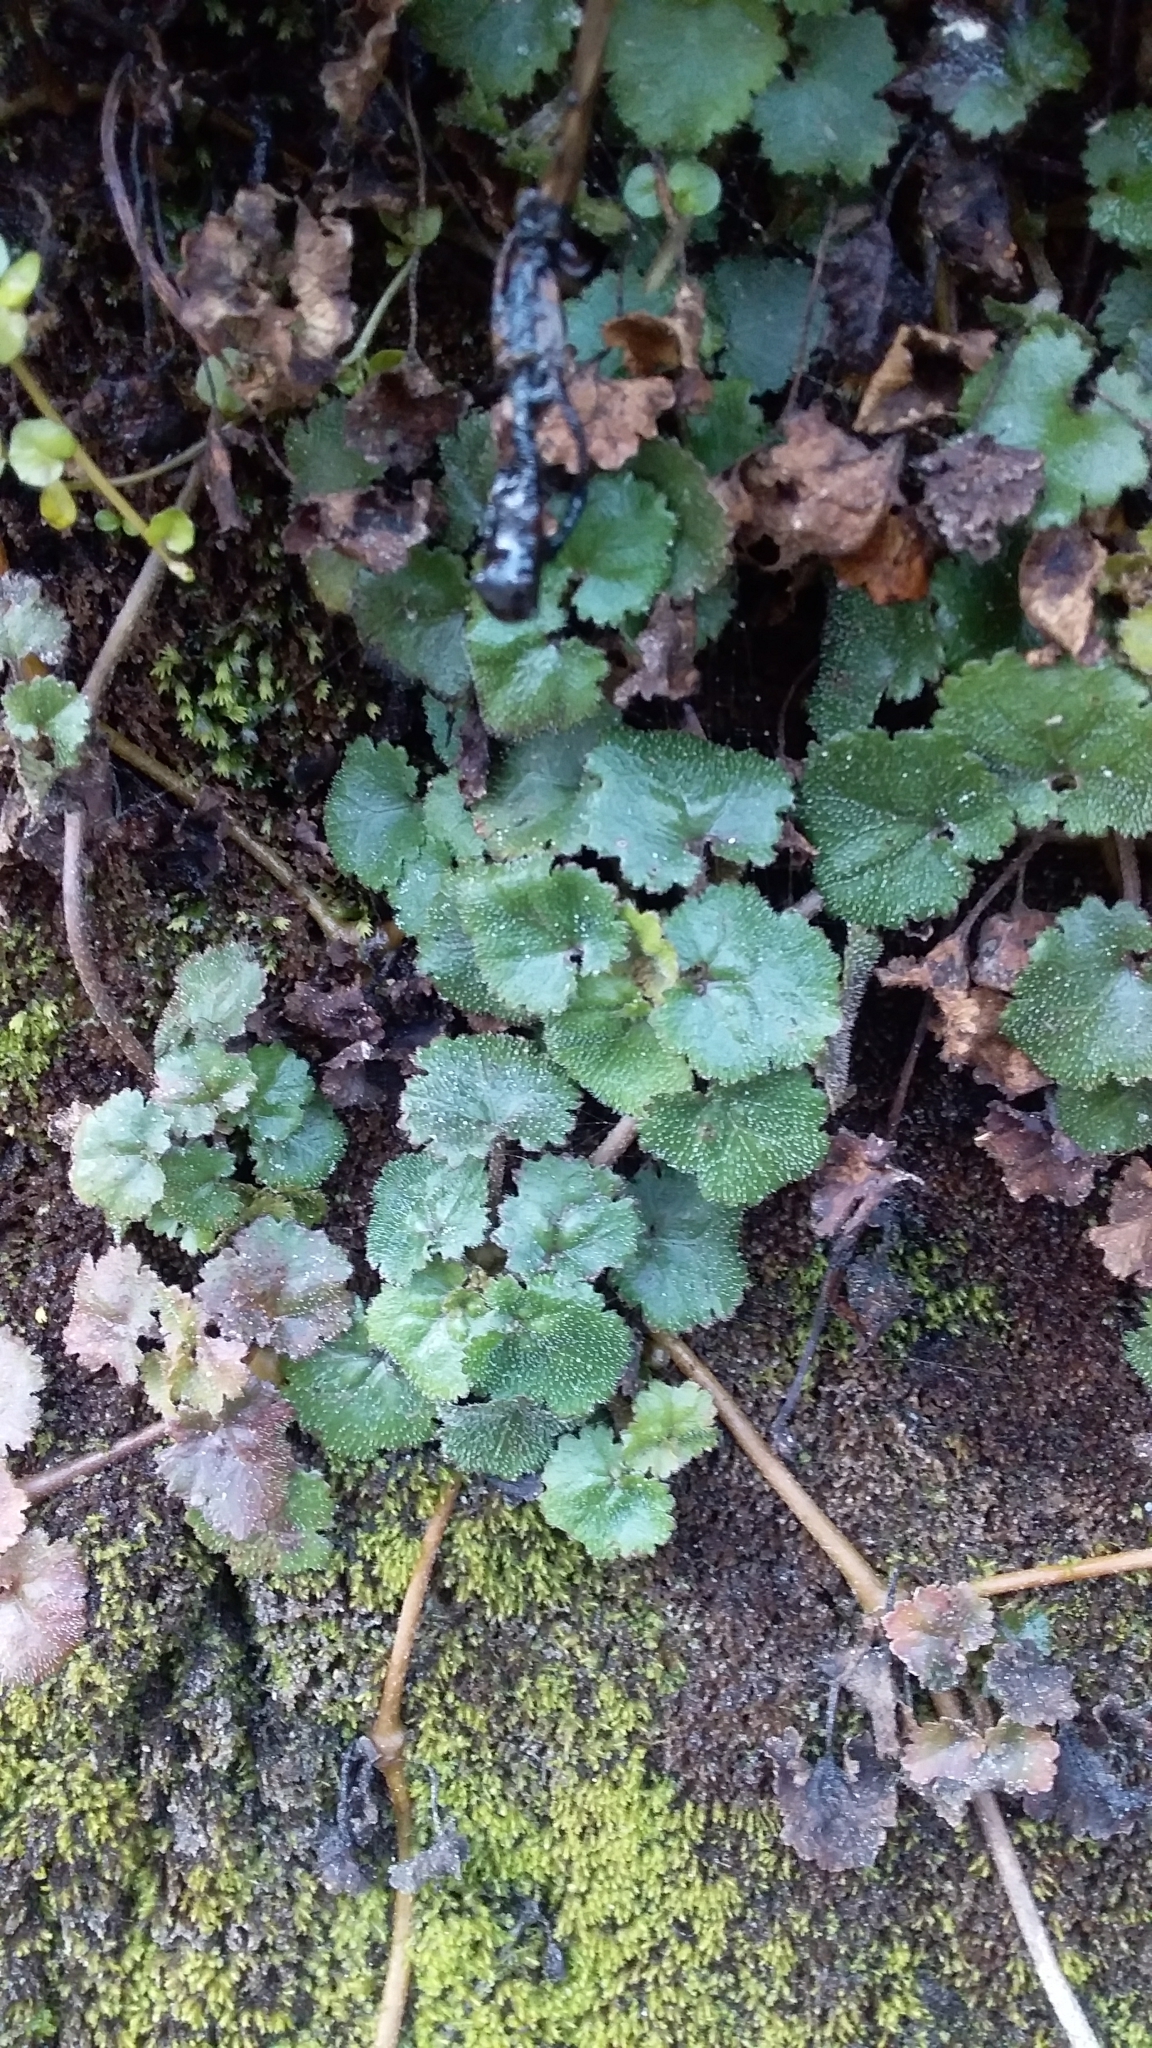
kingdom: Plantae
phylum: Tracheophyta
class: Magnoliopsida
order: Gunnerales
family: Gunneraceae
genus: Gunnera
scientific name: Gunnera monoica
